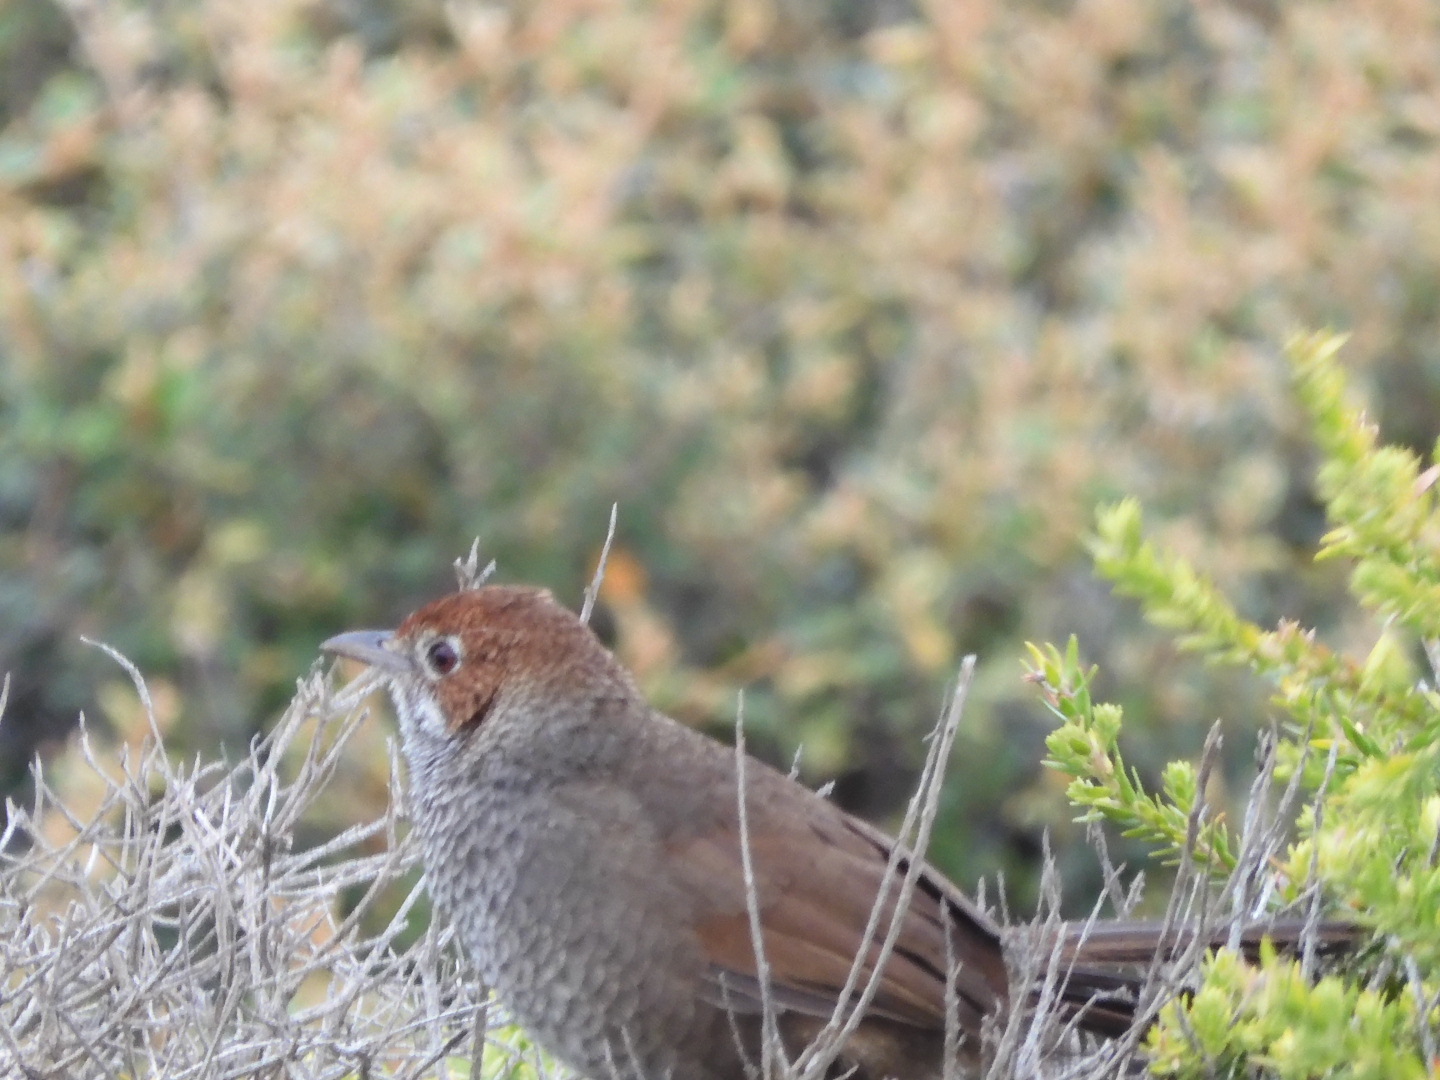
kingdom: Animalia
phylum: Chordata
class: Aves
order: Passeriformes
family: Dasyornithidae
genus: Dasyornis
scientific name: Dasyornis broadbenti
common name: Rufous bristlebird
